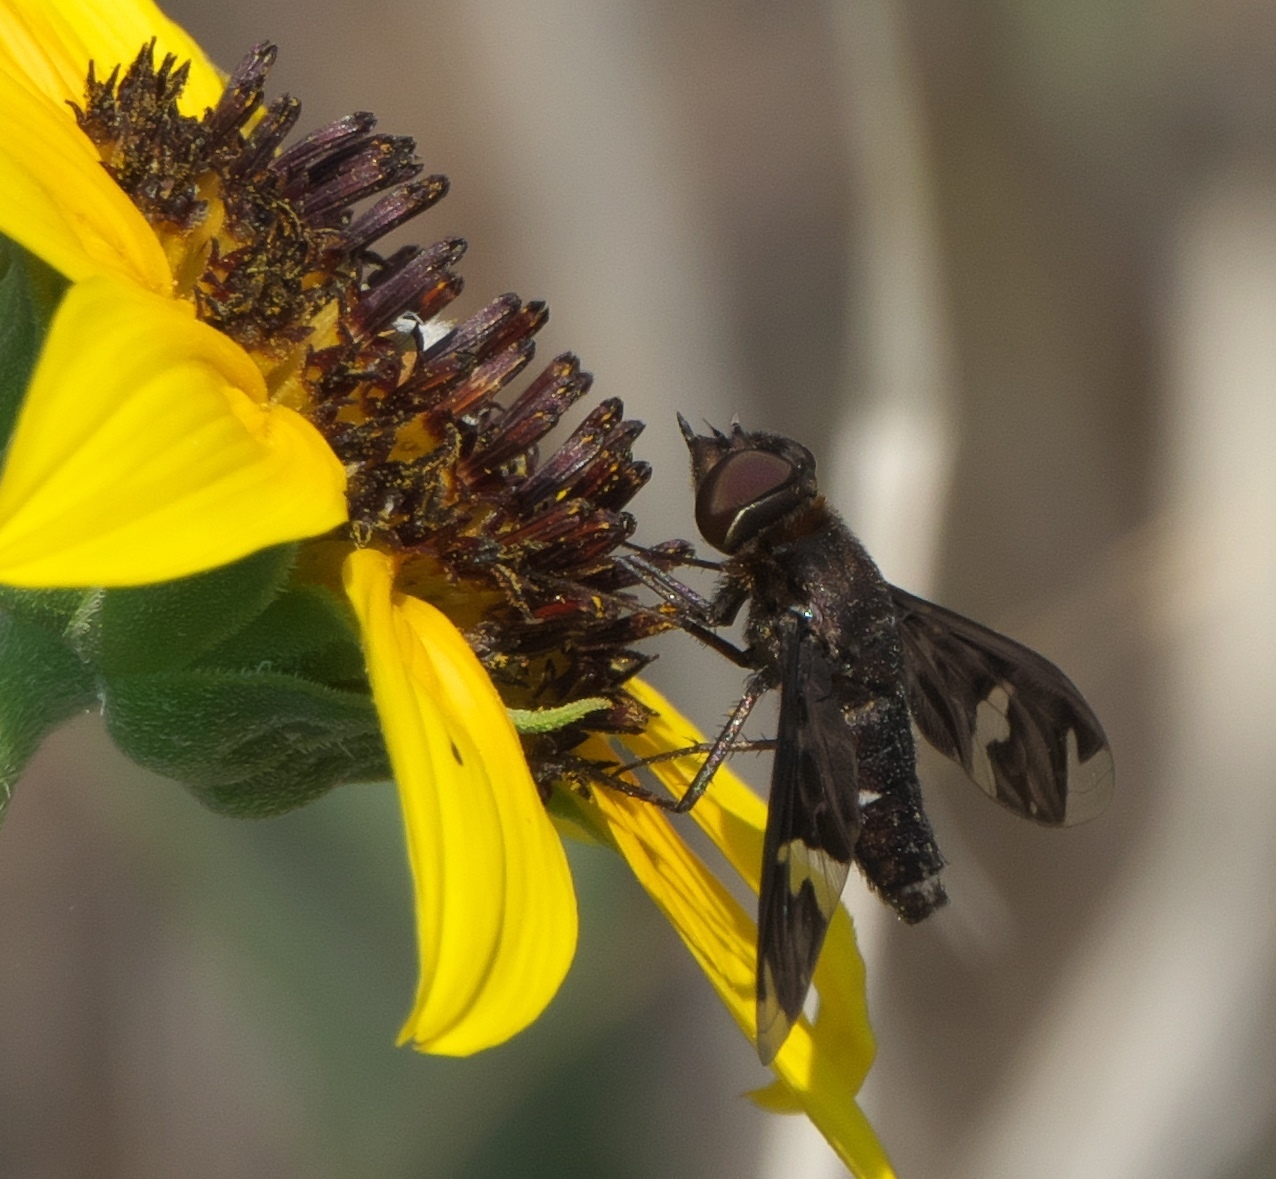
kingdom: Animalia
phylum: Arthropoda
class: Insecta
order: Diptera
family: Bombyliidae
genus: Exoprosopa
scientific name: Exoprosopa decora
